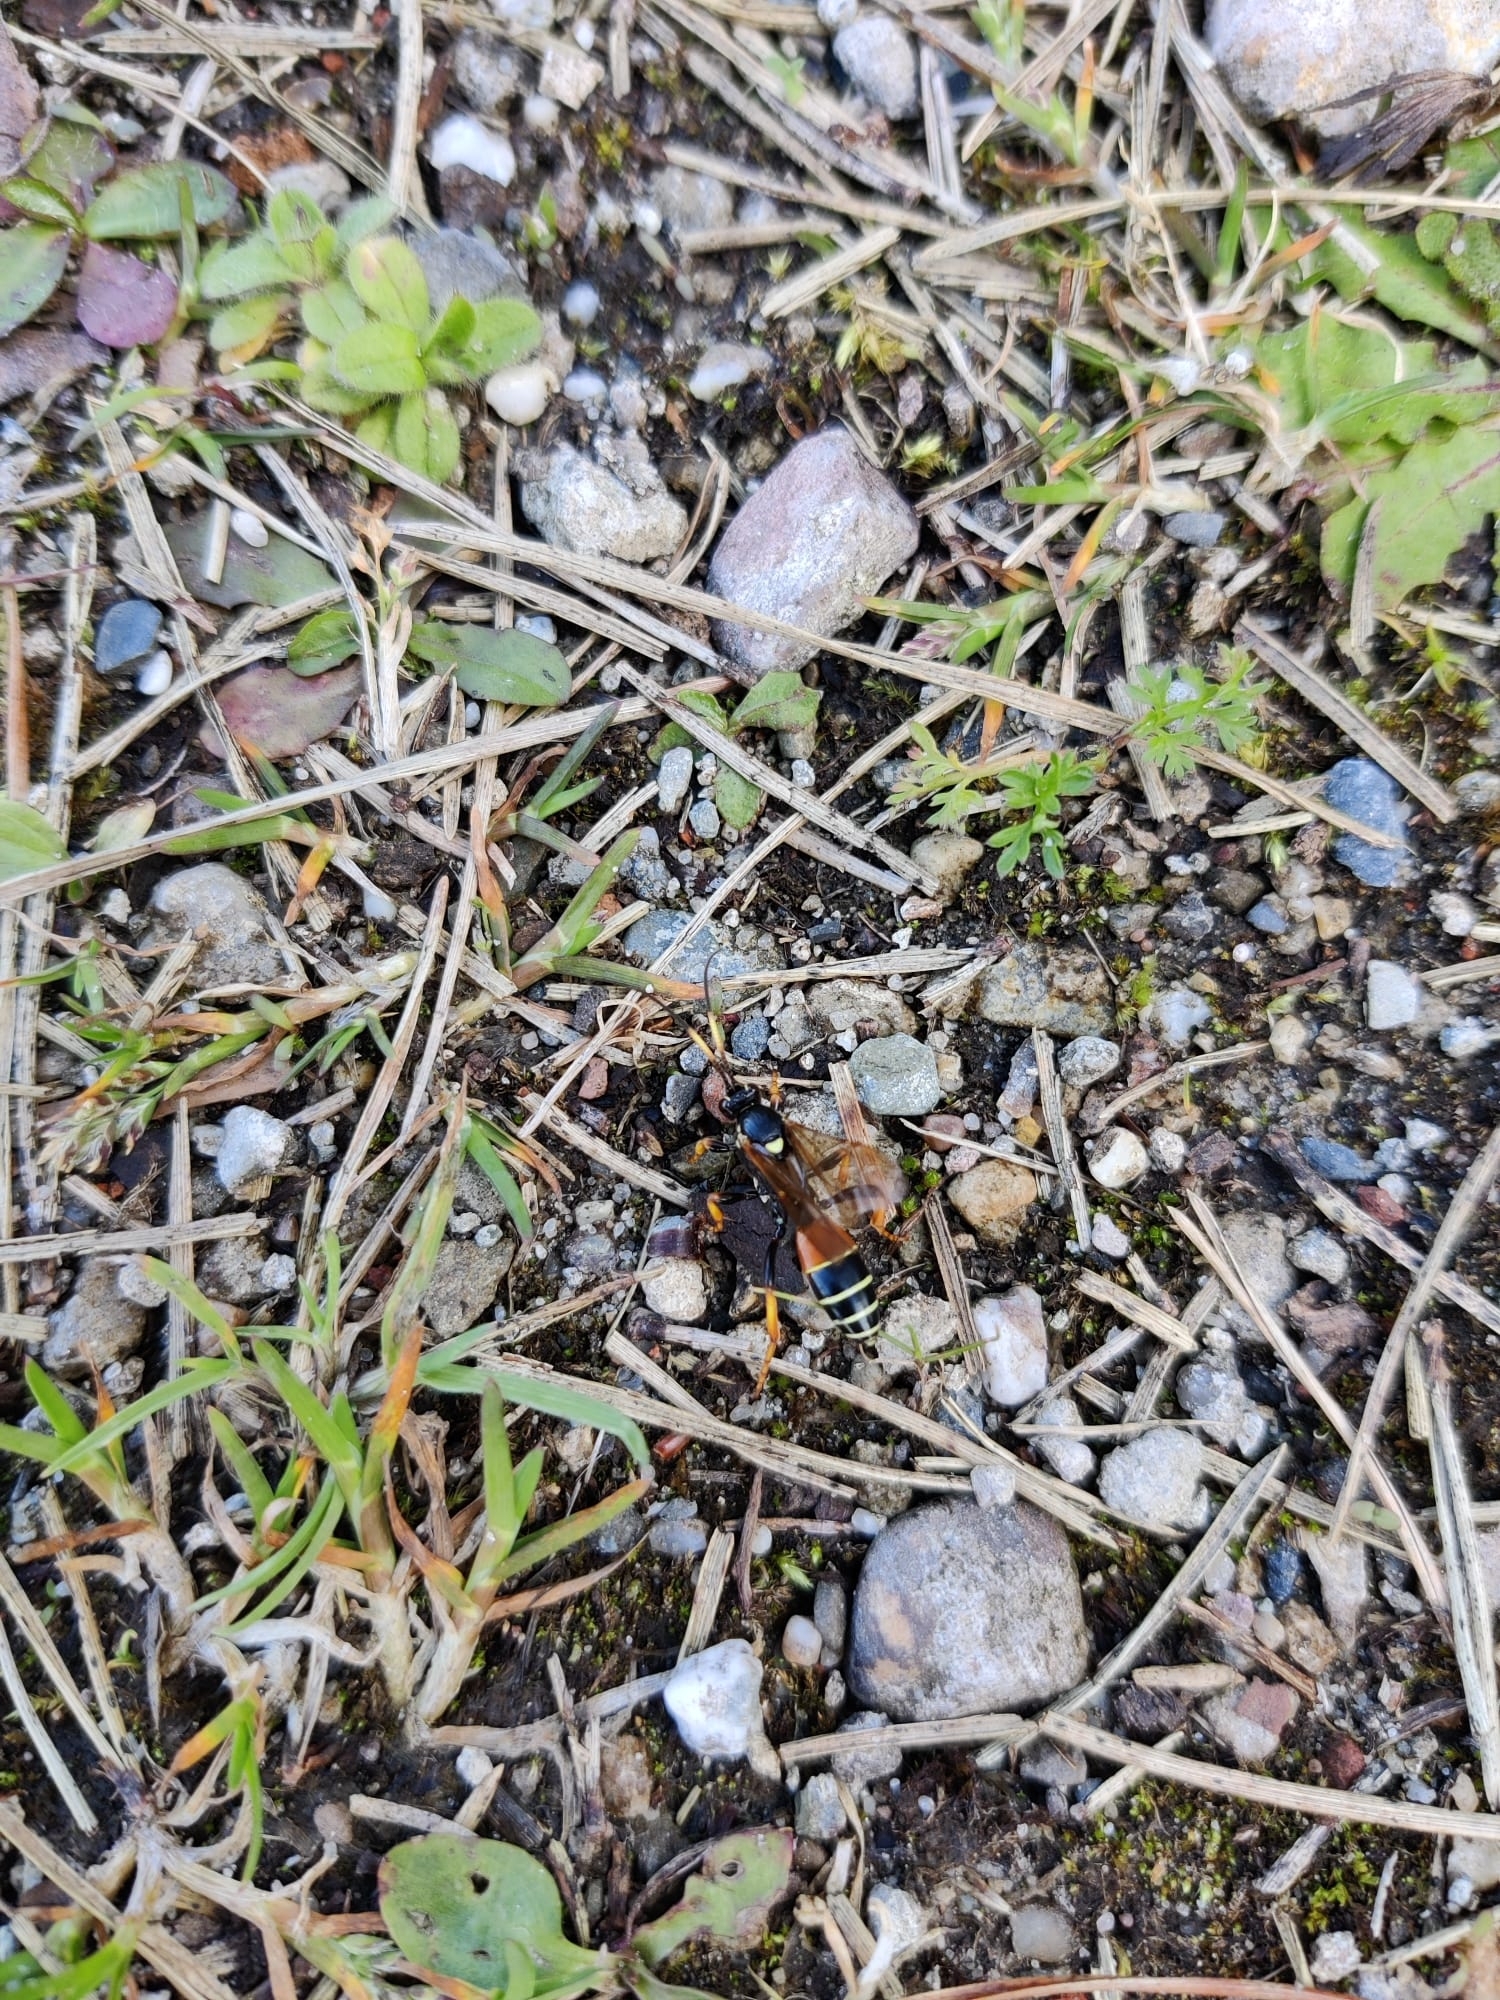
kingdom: Animalia
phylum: Arthropoda
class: Insecta
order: Hymenoptera
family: Ichneumonidae
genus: Diphyus
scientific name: Diphyus amatorius
